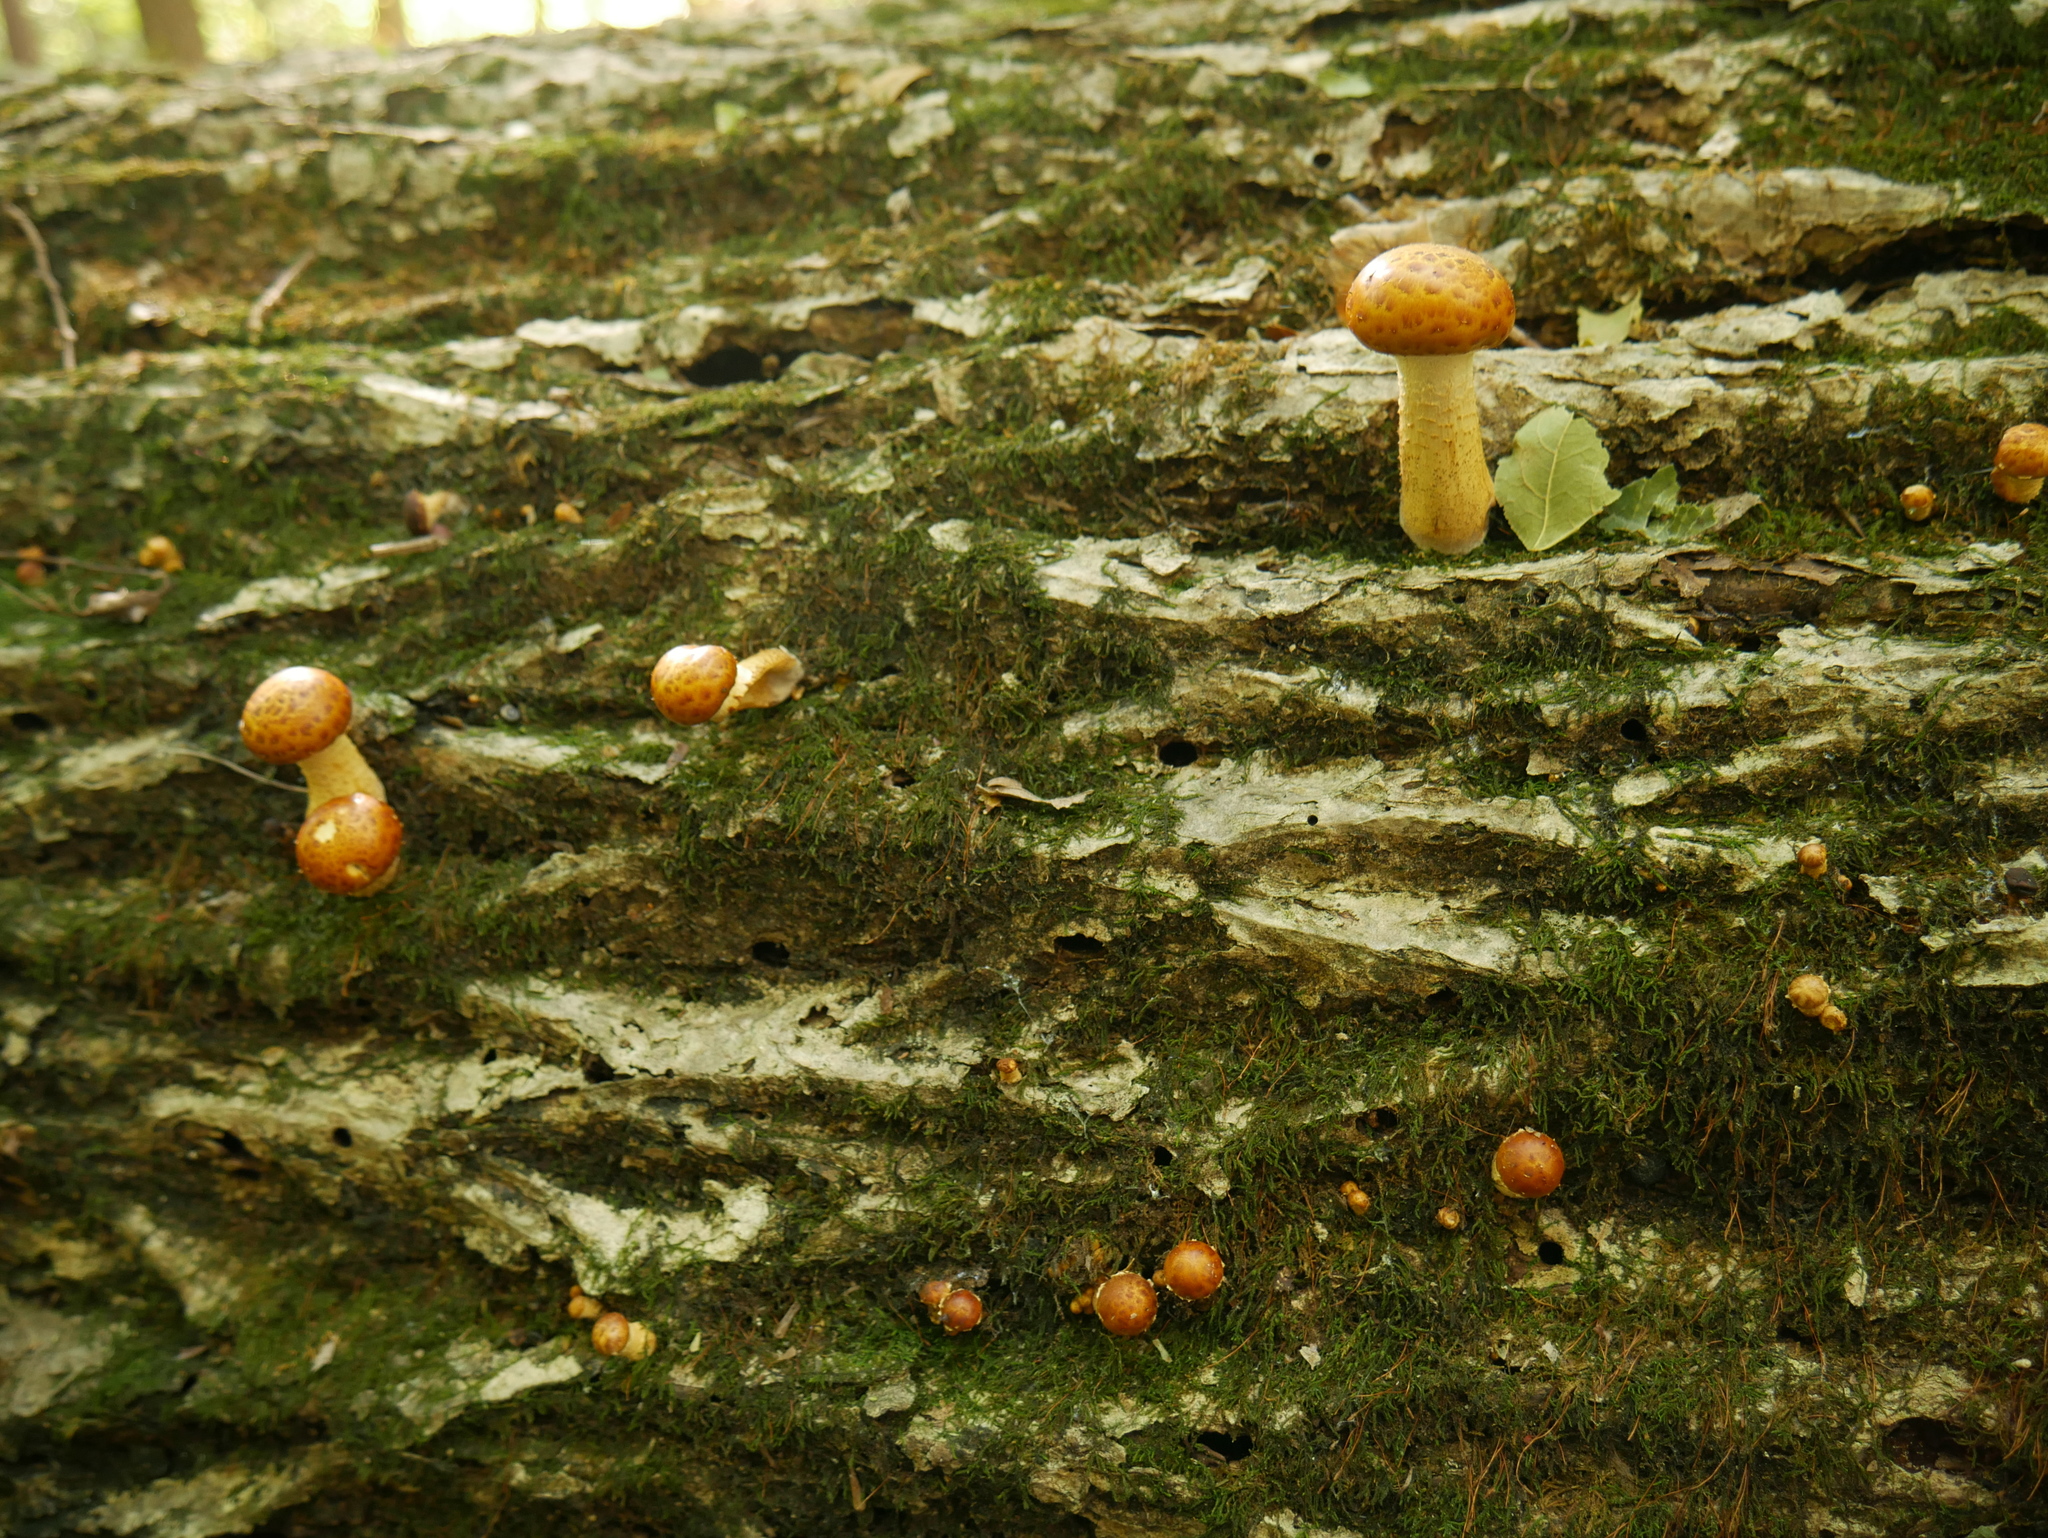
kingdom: Fungi
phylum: Basidiomycota
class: Agaricomycetes
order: Agaricales
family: Strophariaceae
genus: Pholiota
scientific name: Pholiota aurivella
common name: Golden scalycap
